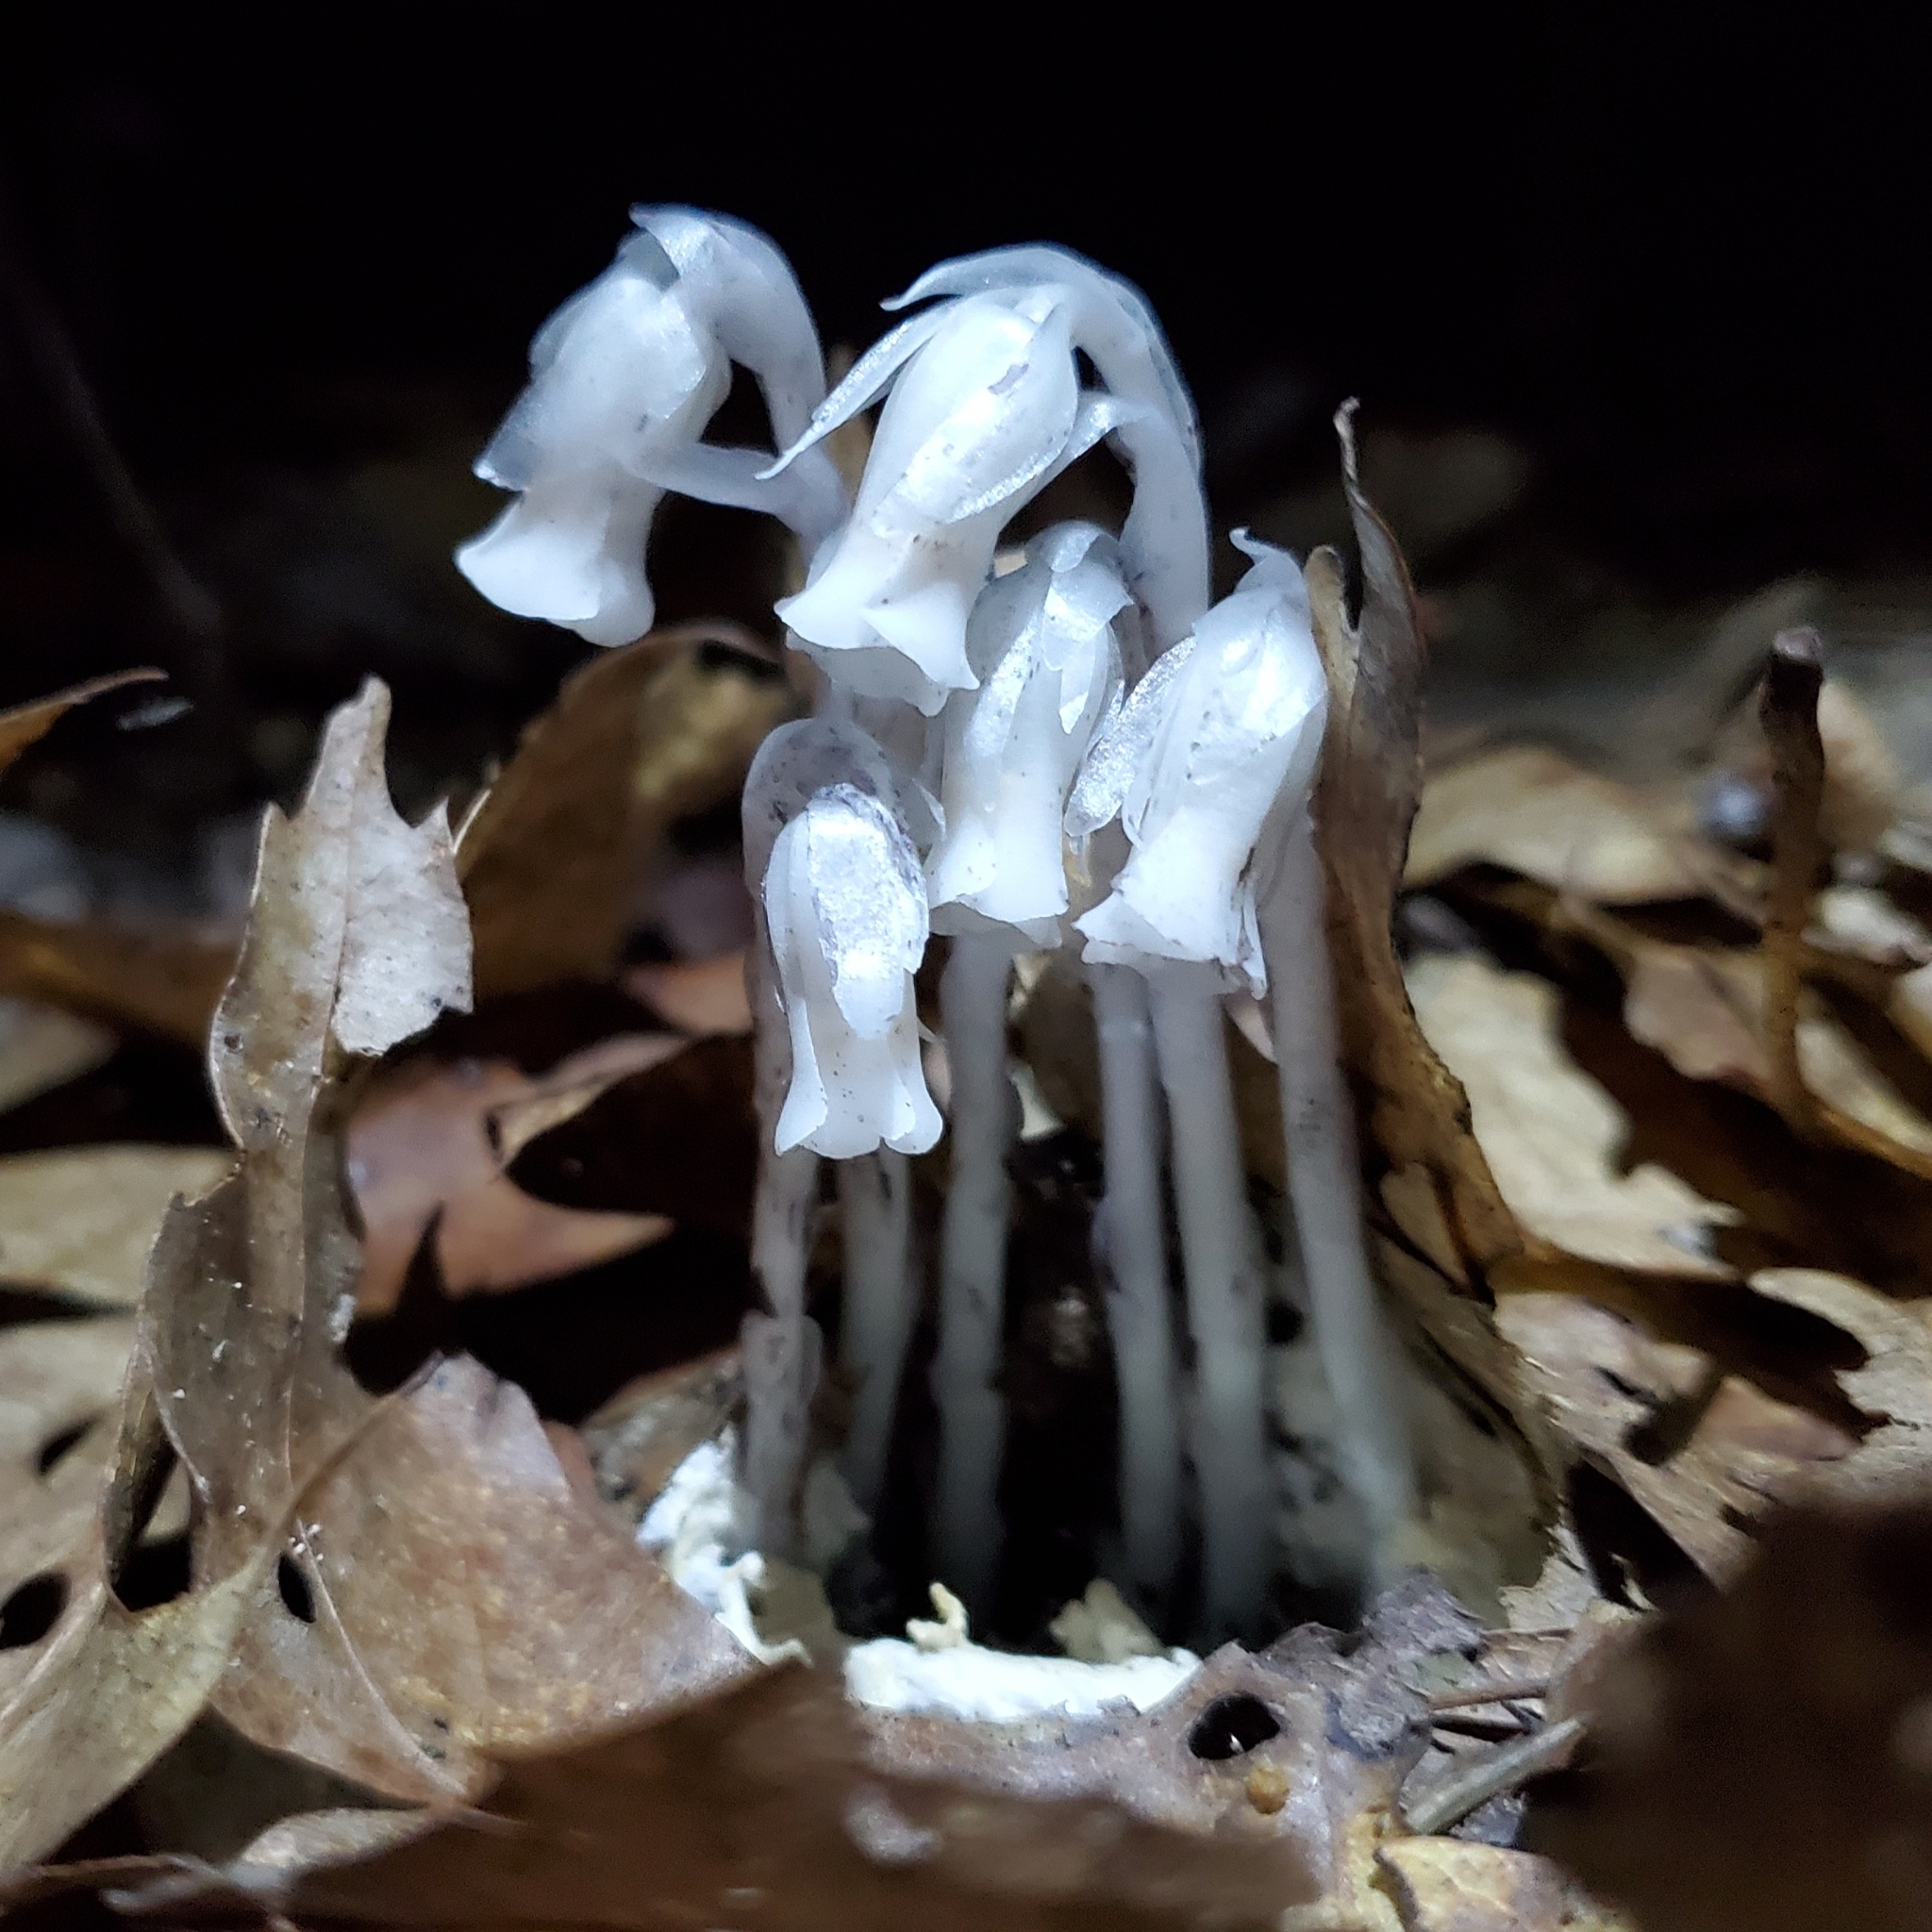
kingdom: Plantae
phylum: Tracheophyta
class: Magnoliopsida
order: Ericales
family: Ericaceae
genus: Monotropa
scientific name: Monotropa uniflora
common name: Convulsion root
